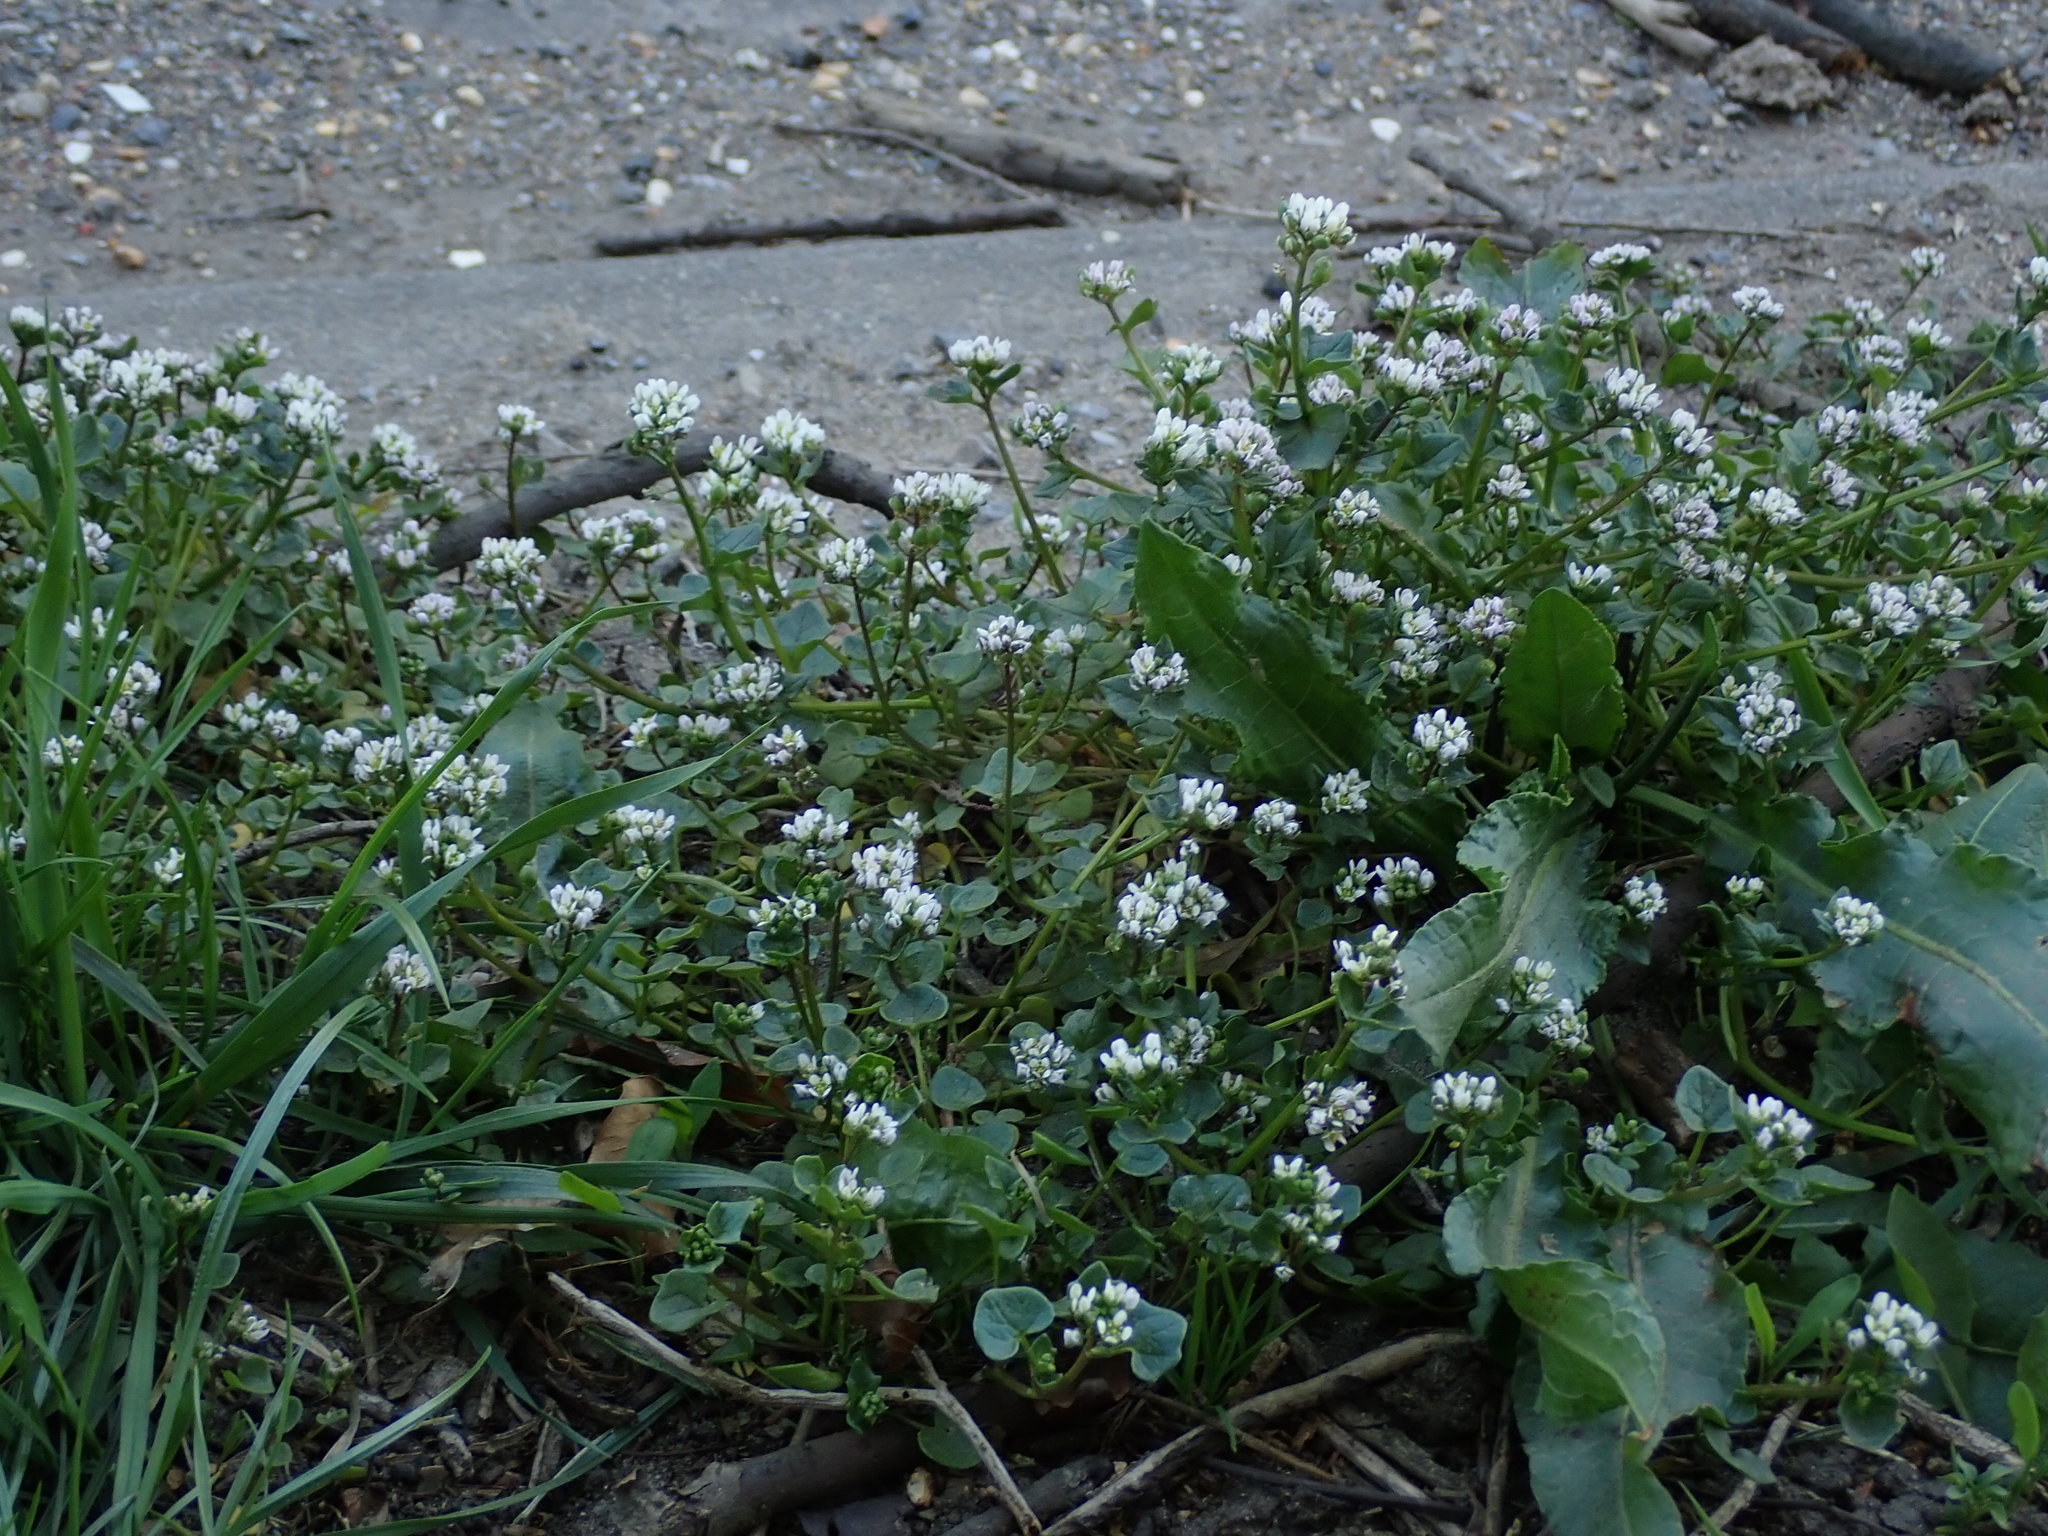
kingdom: Plantae
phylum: Tracheophyta
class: Magnoliopsida
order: Brassicales
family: Brassicaceae
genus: Cochlearia
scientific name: Cochlearia danica
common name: Early scurvygrass
